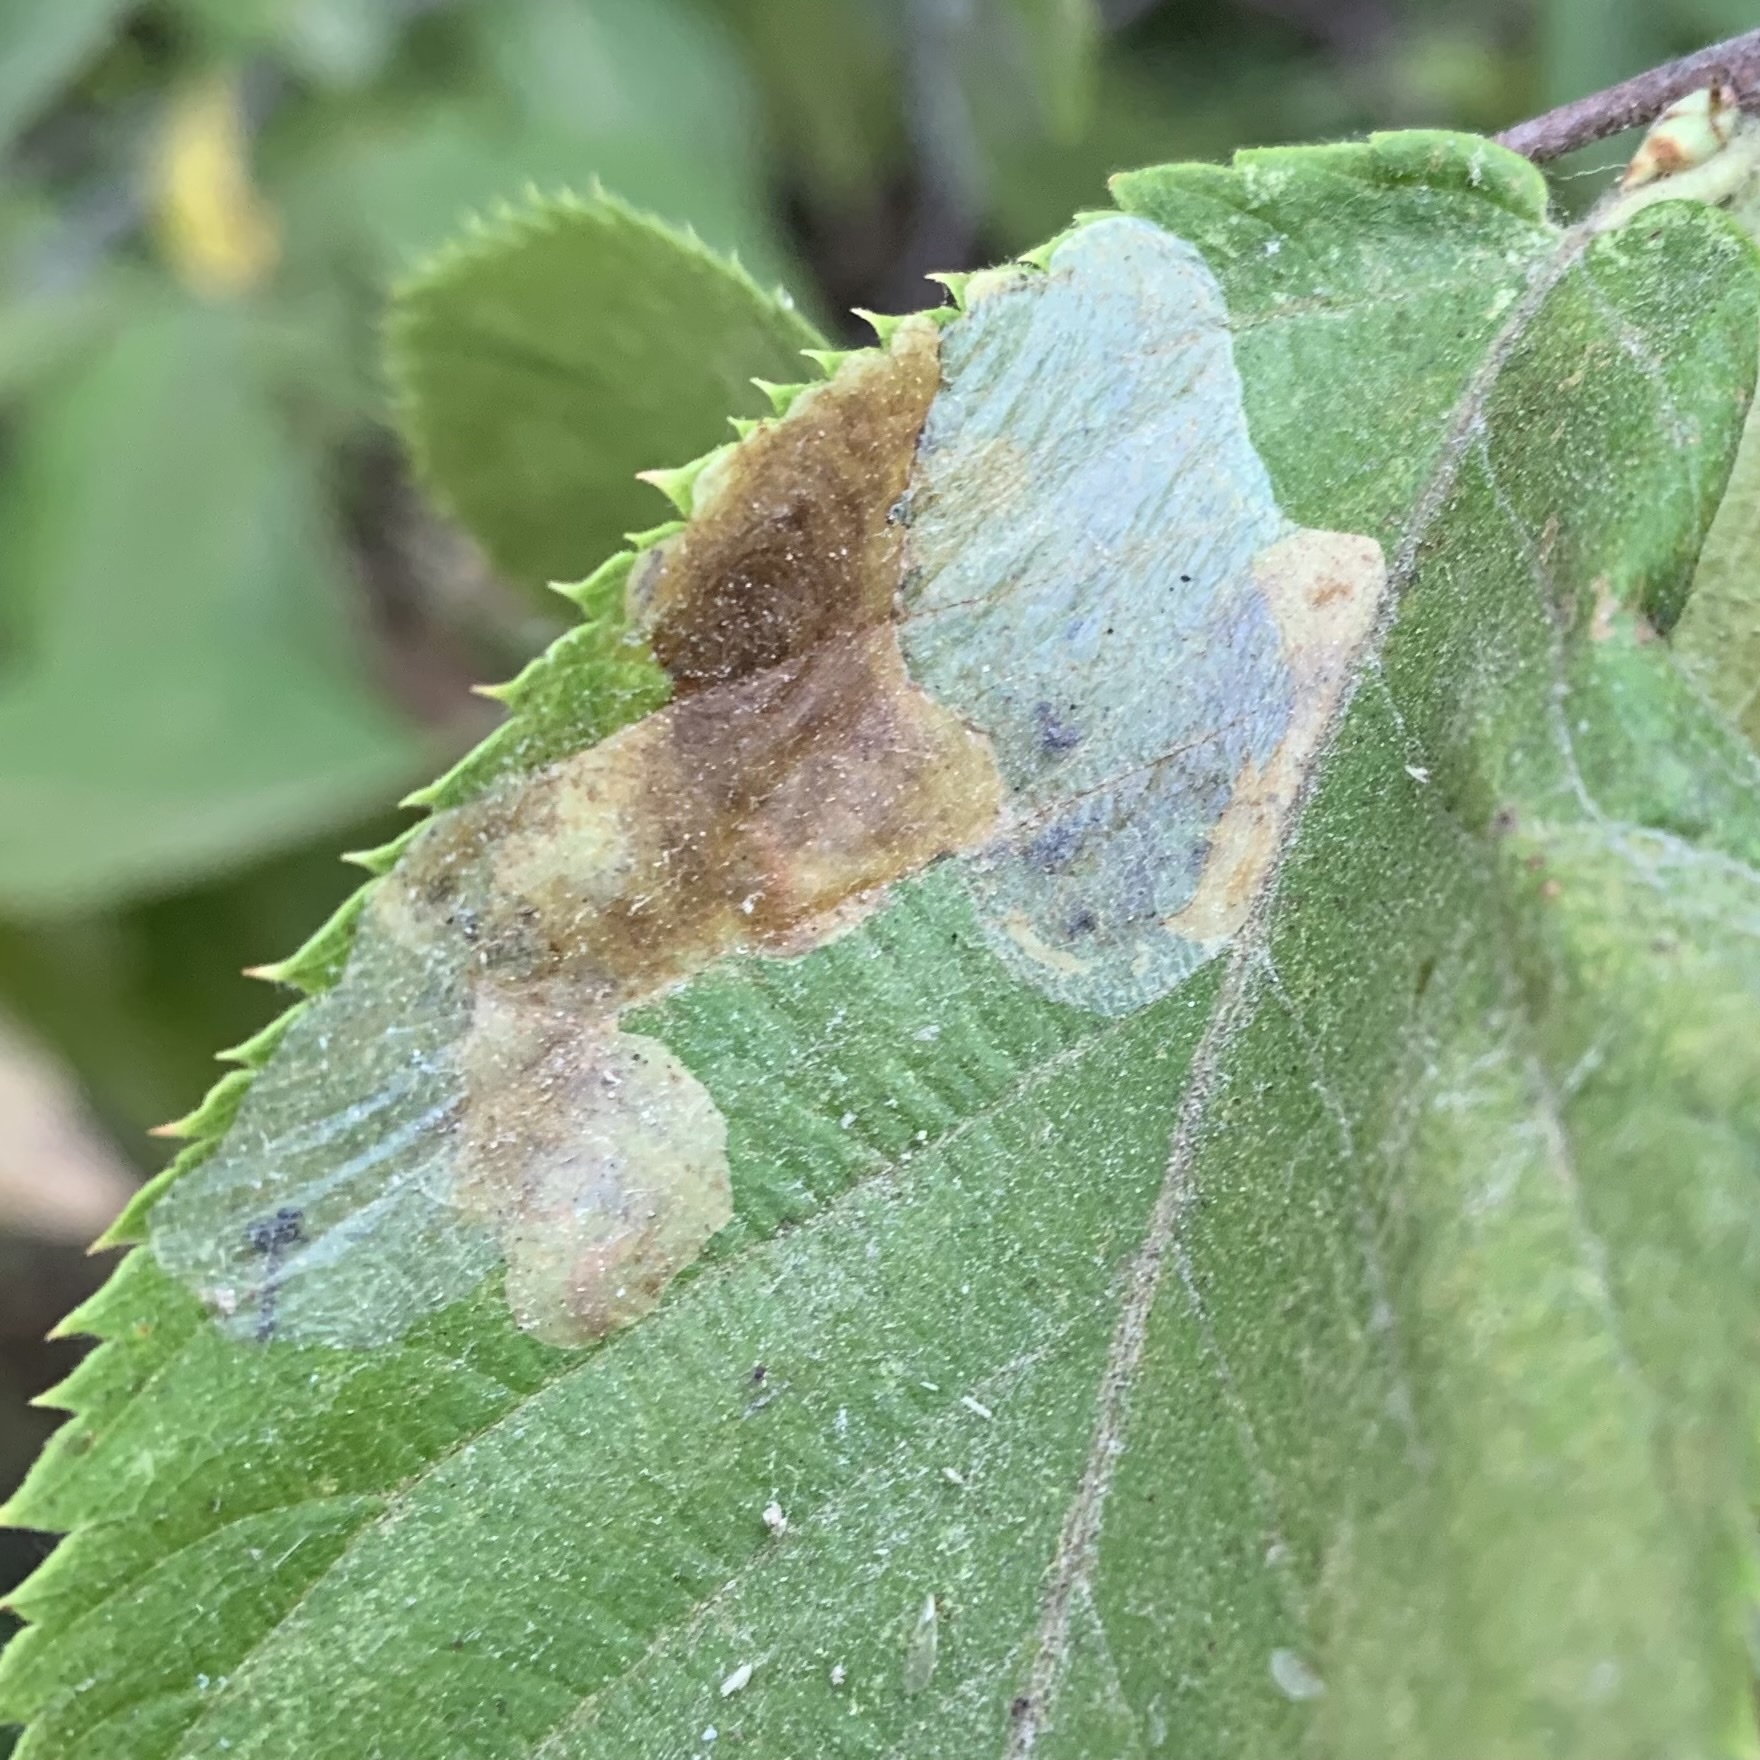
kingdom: Animalia
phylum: Arthropoda
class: Insecta
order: Lepidoptera
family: Gracillariidae
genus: Phyllonorycter
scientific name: Phyllonorycter tritaenianella
